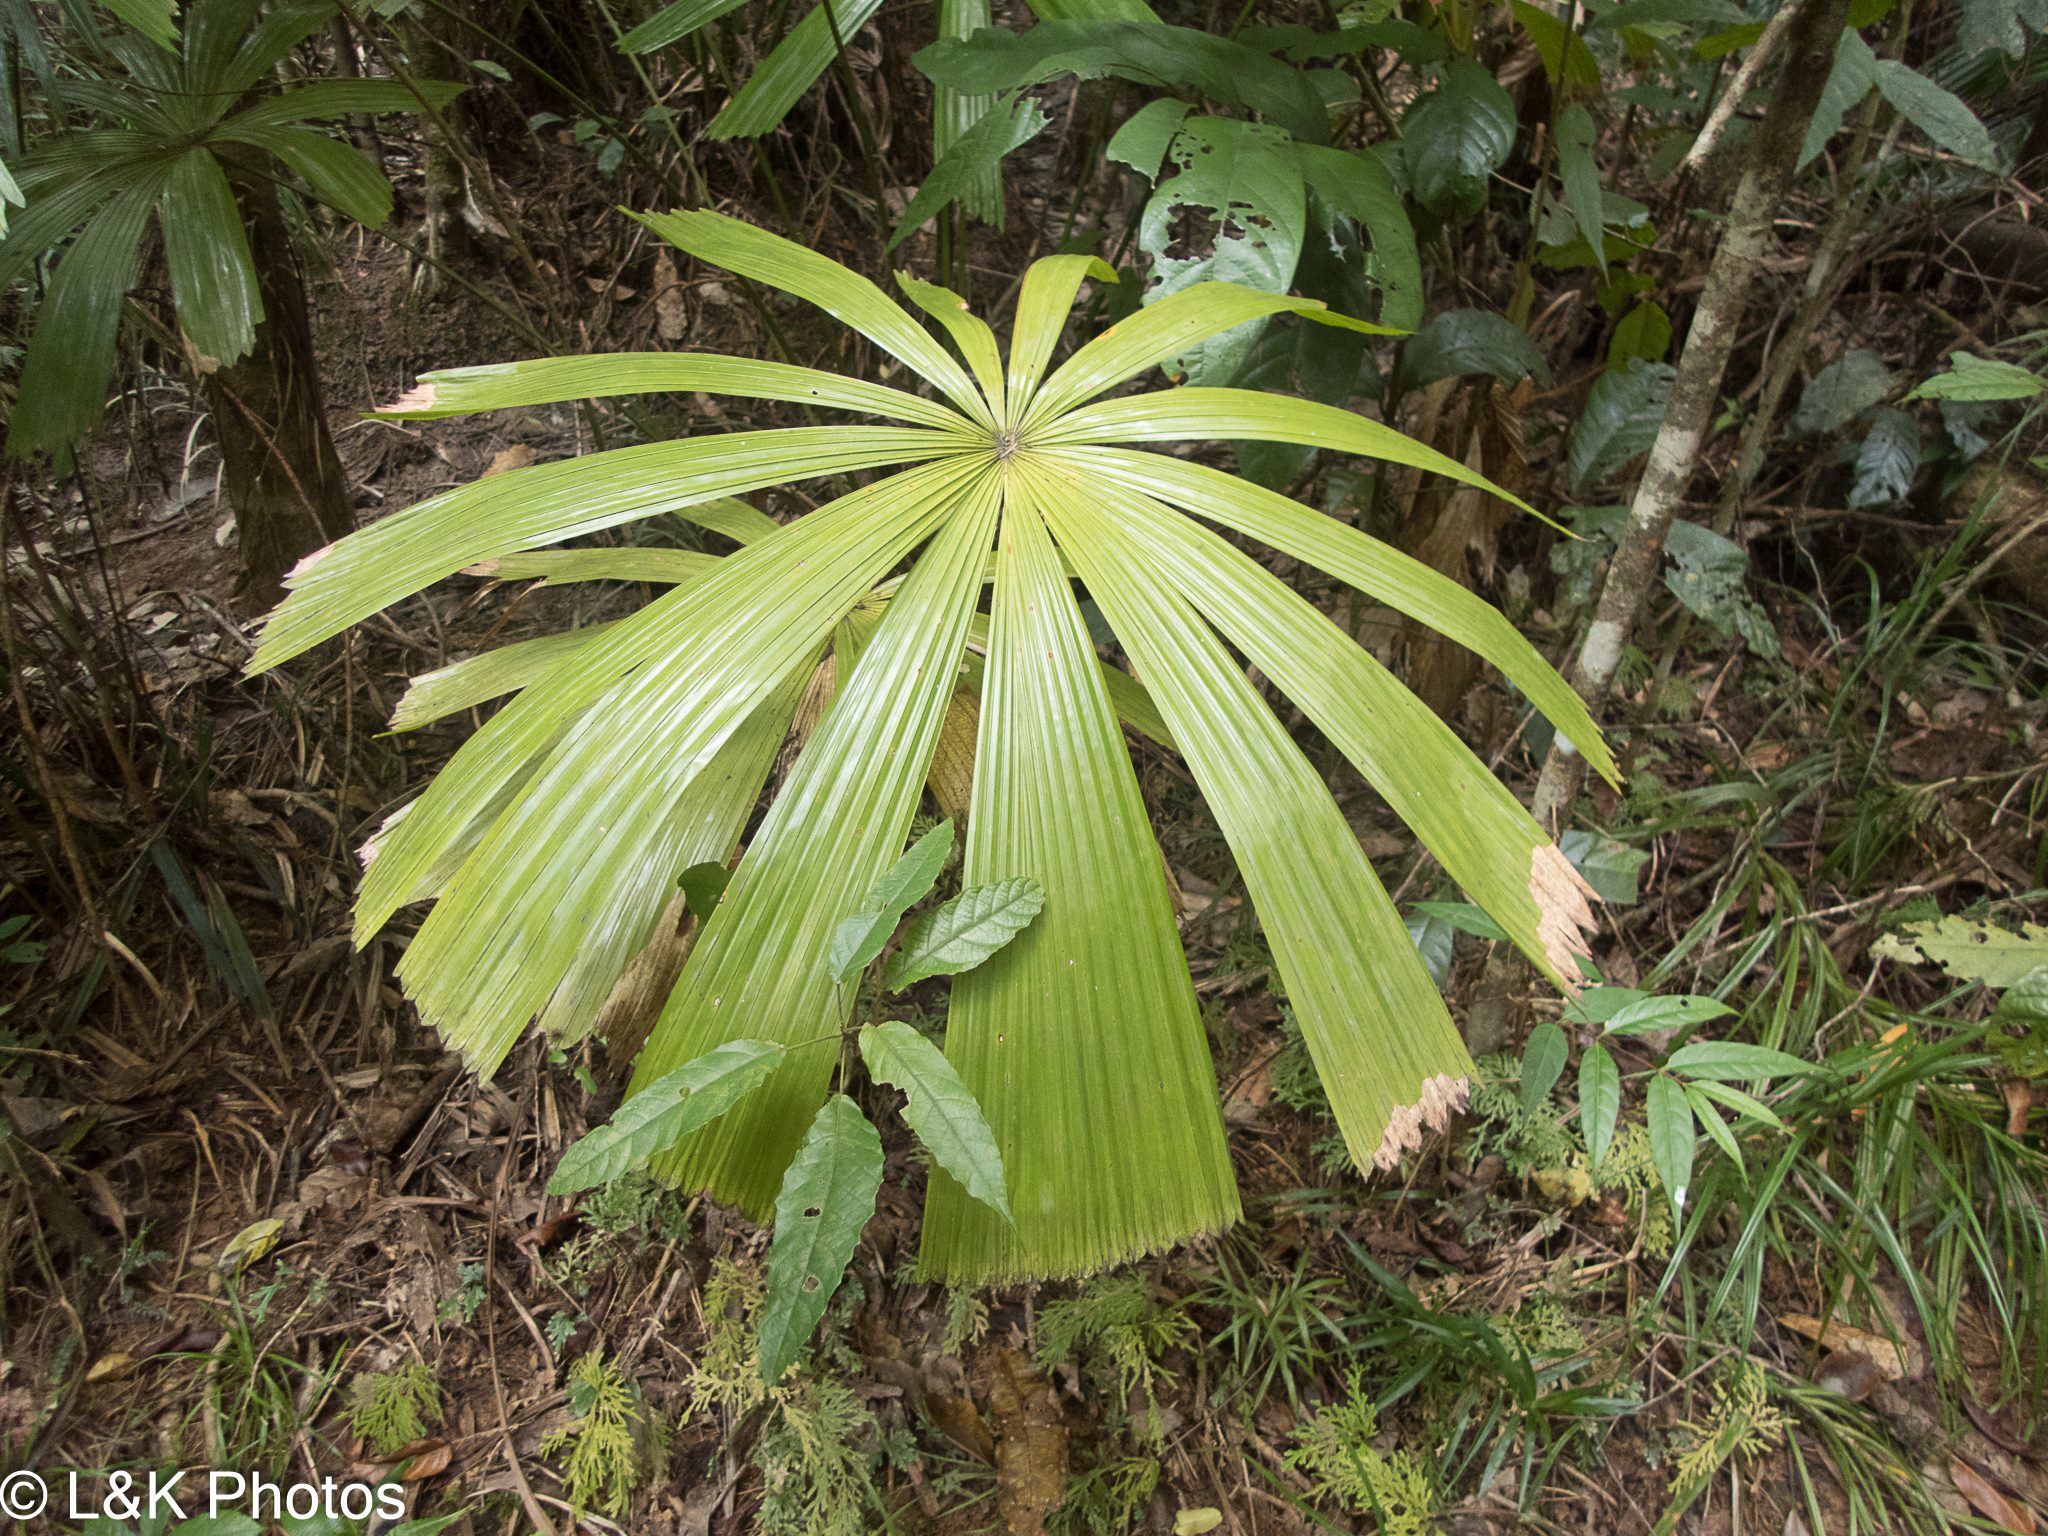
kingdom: Plantae
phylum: Tracheophyta
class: Liliopsida
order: Arecales
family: Arecaceae
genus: Licuala
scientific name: Licuala ramsayi
